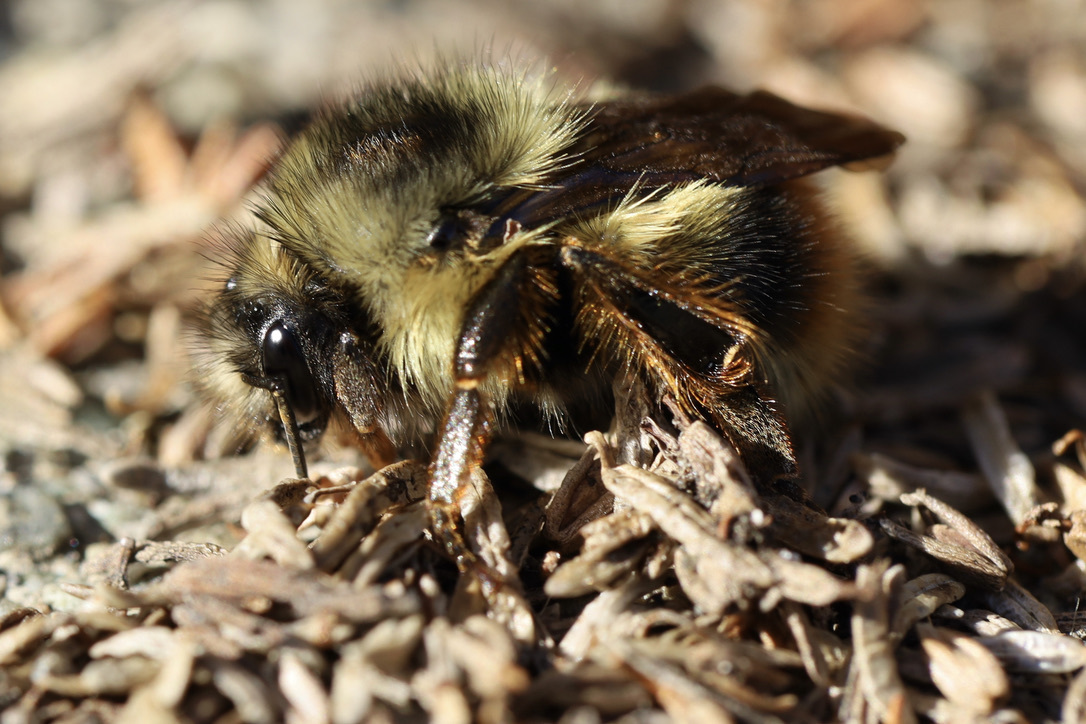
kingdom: Animalia
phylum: Arthropoda
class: Insecta
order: Hymenoptera
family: Apidae
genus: Bombus
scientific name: Bombus mixtus
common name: Fuzzy-horned bumble bee
